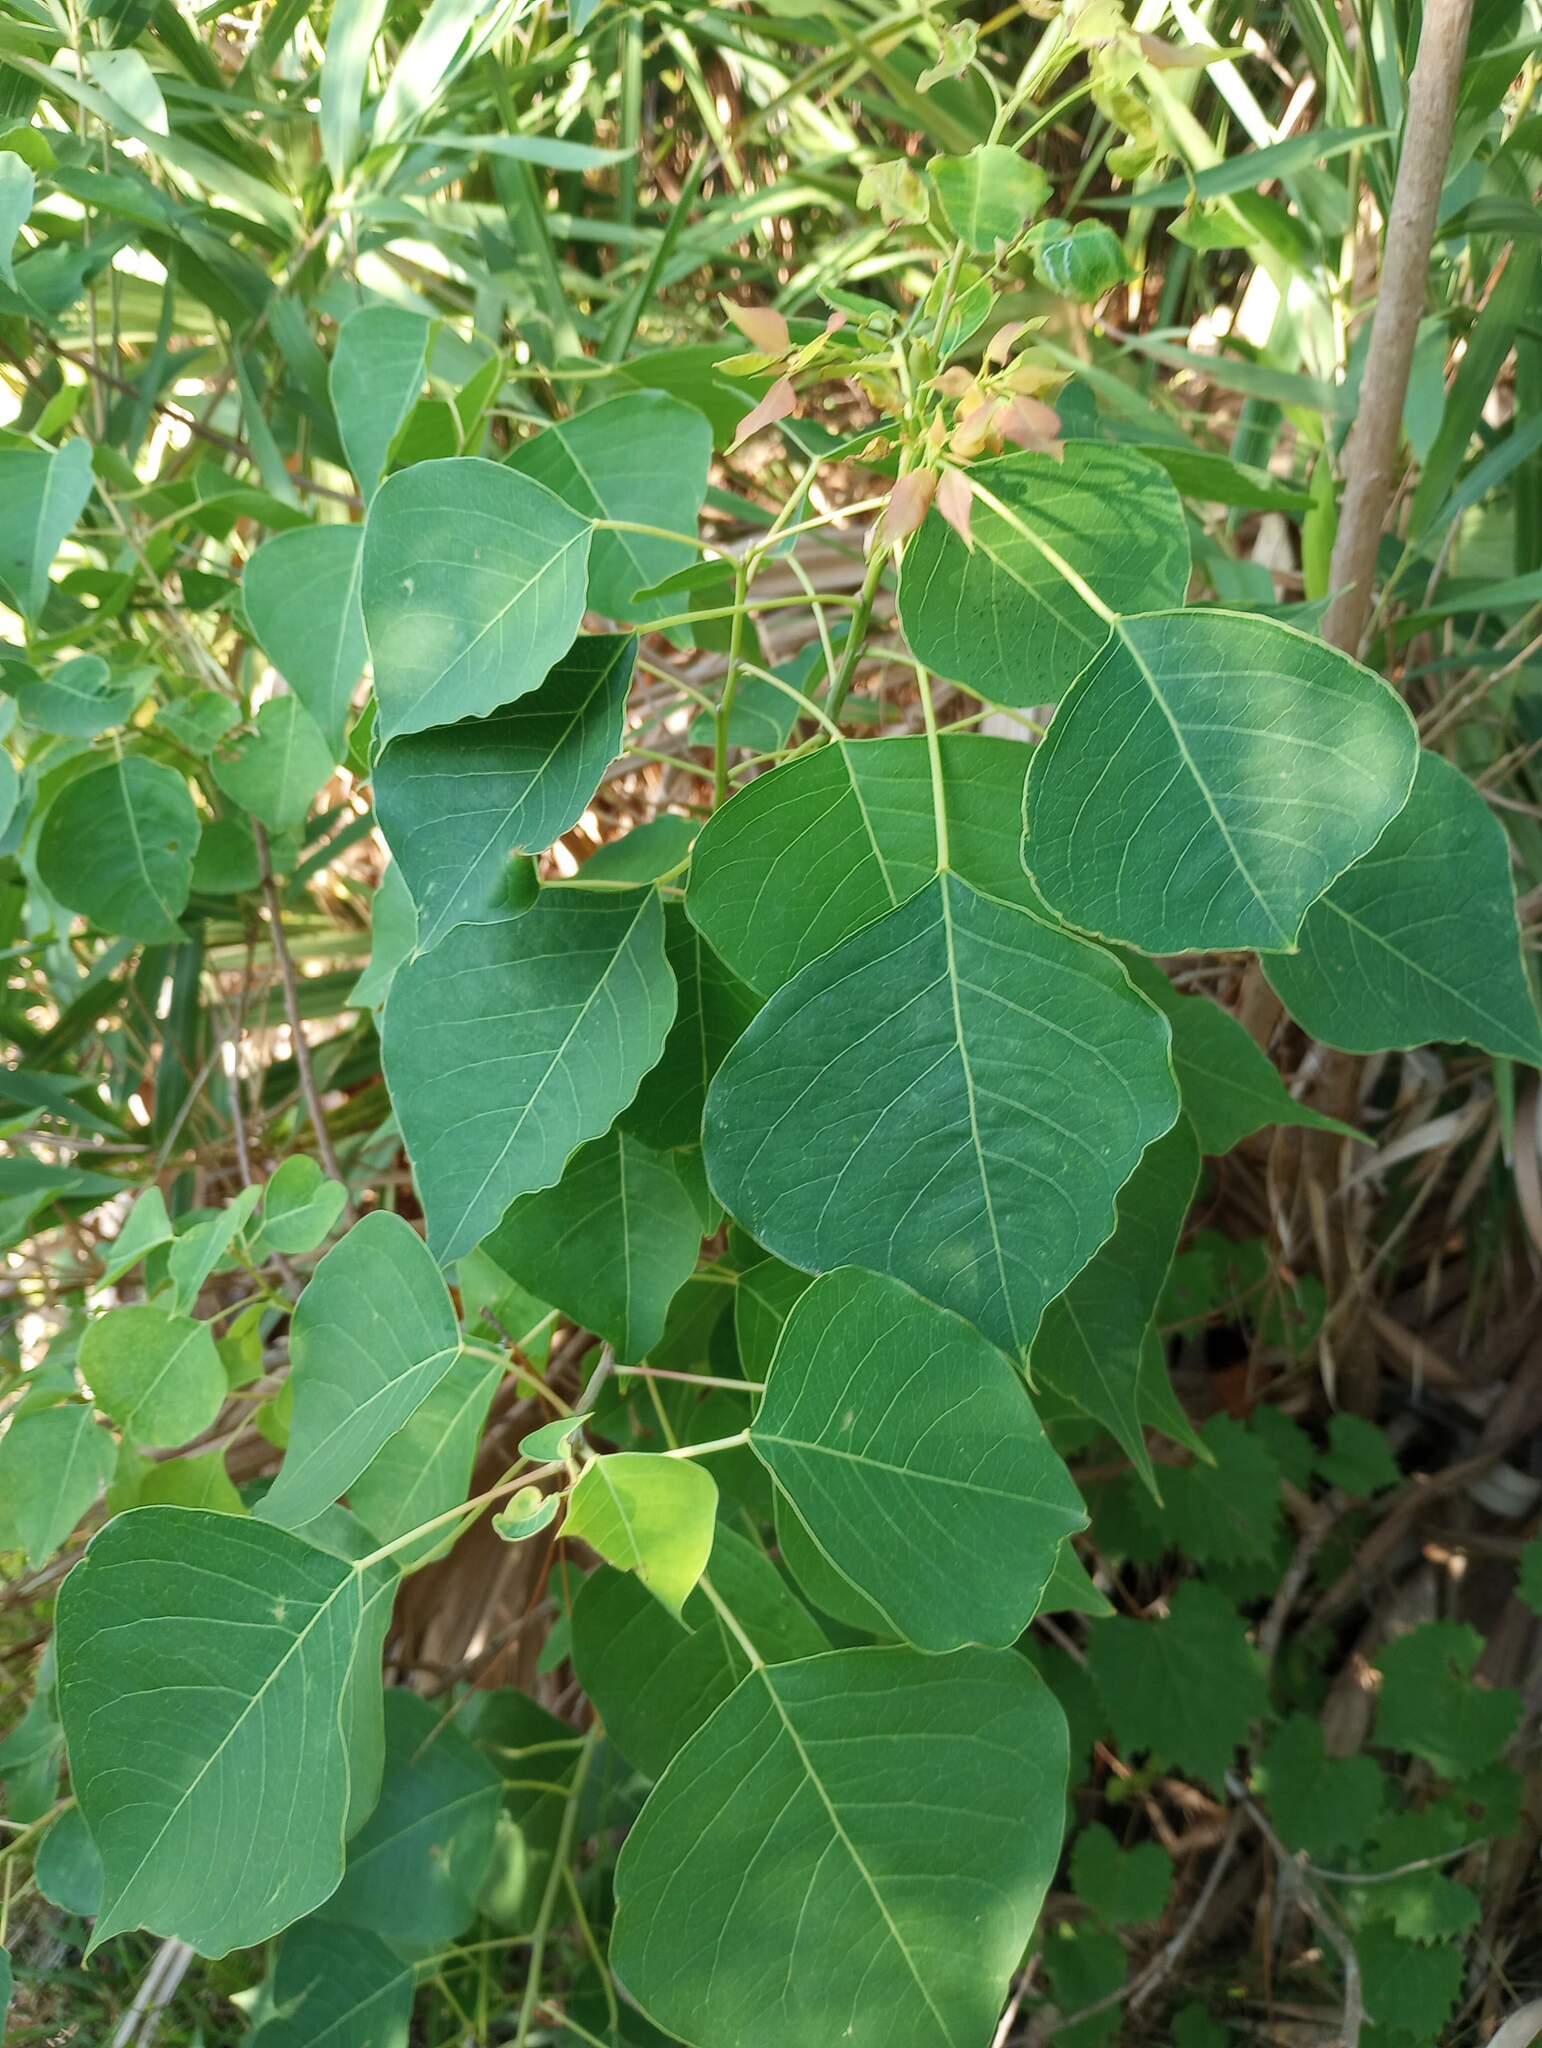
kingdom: Plantae
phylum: Tracheophyta
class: Magnoliopsida
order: Malpighiales
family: Euphorbiaceae
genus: Triadica
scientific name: Triadica sebifera
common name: Chinese tallow
